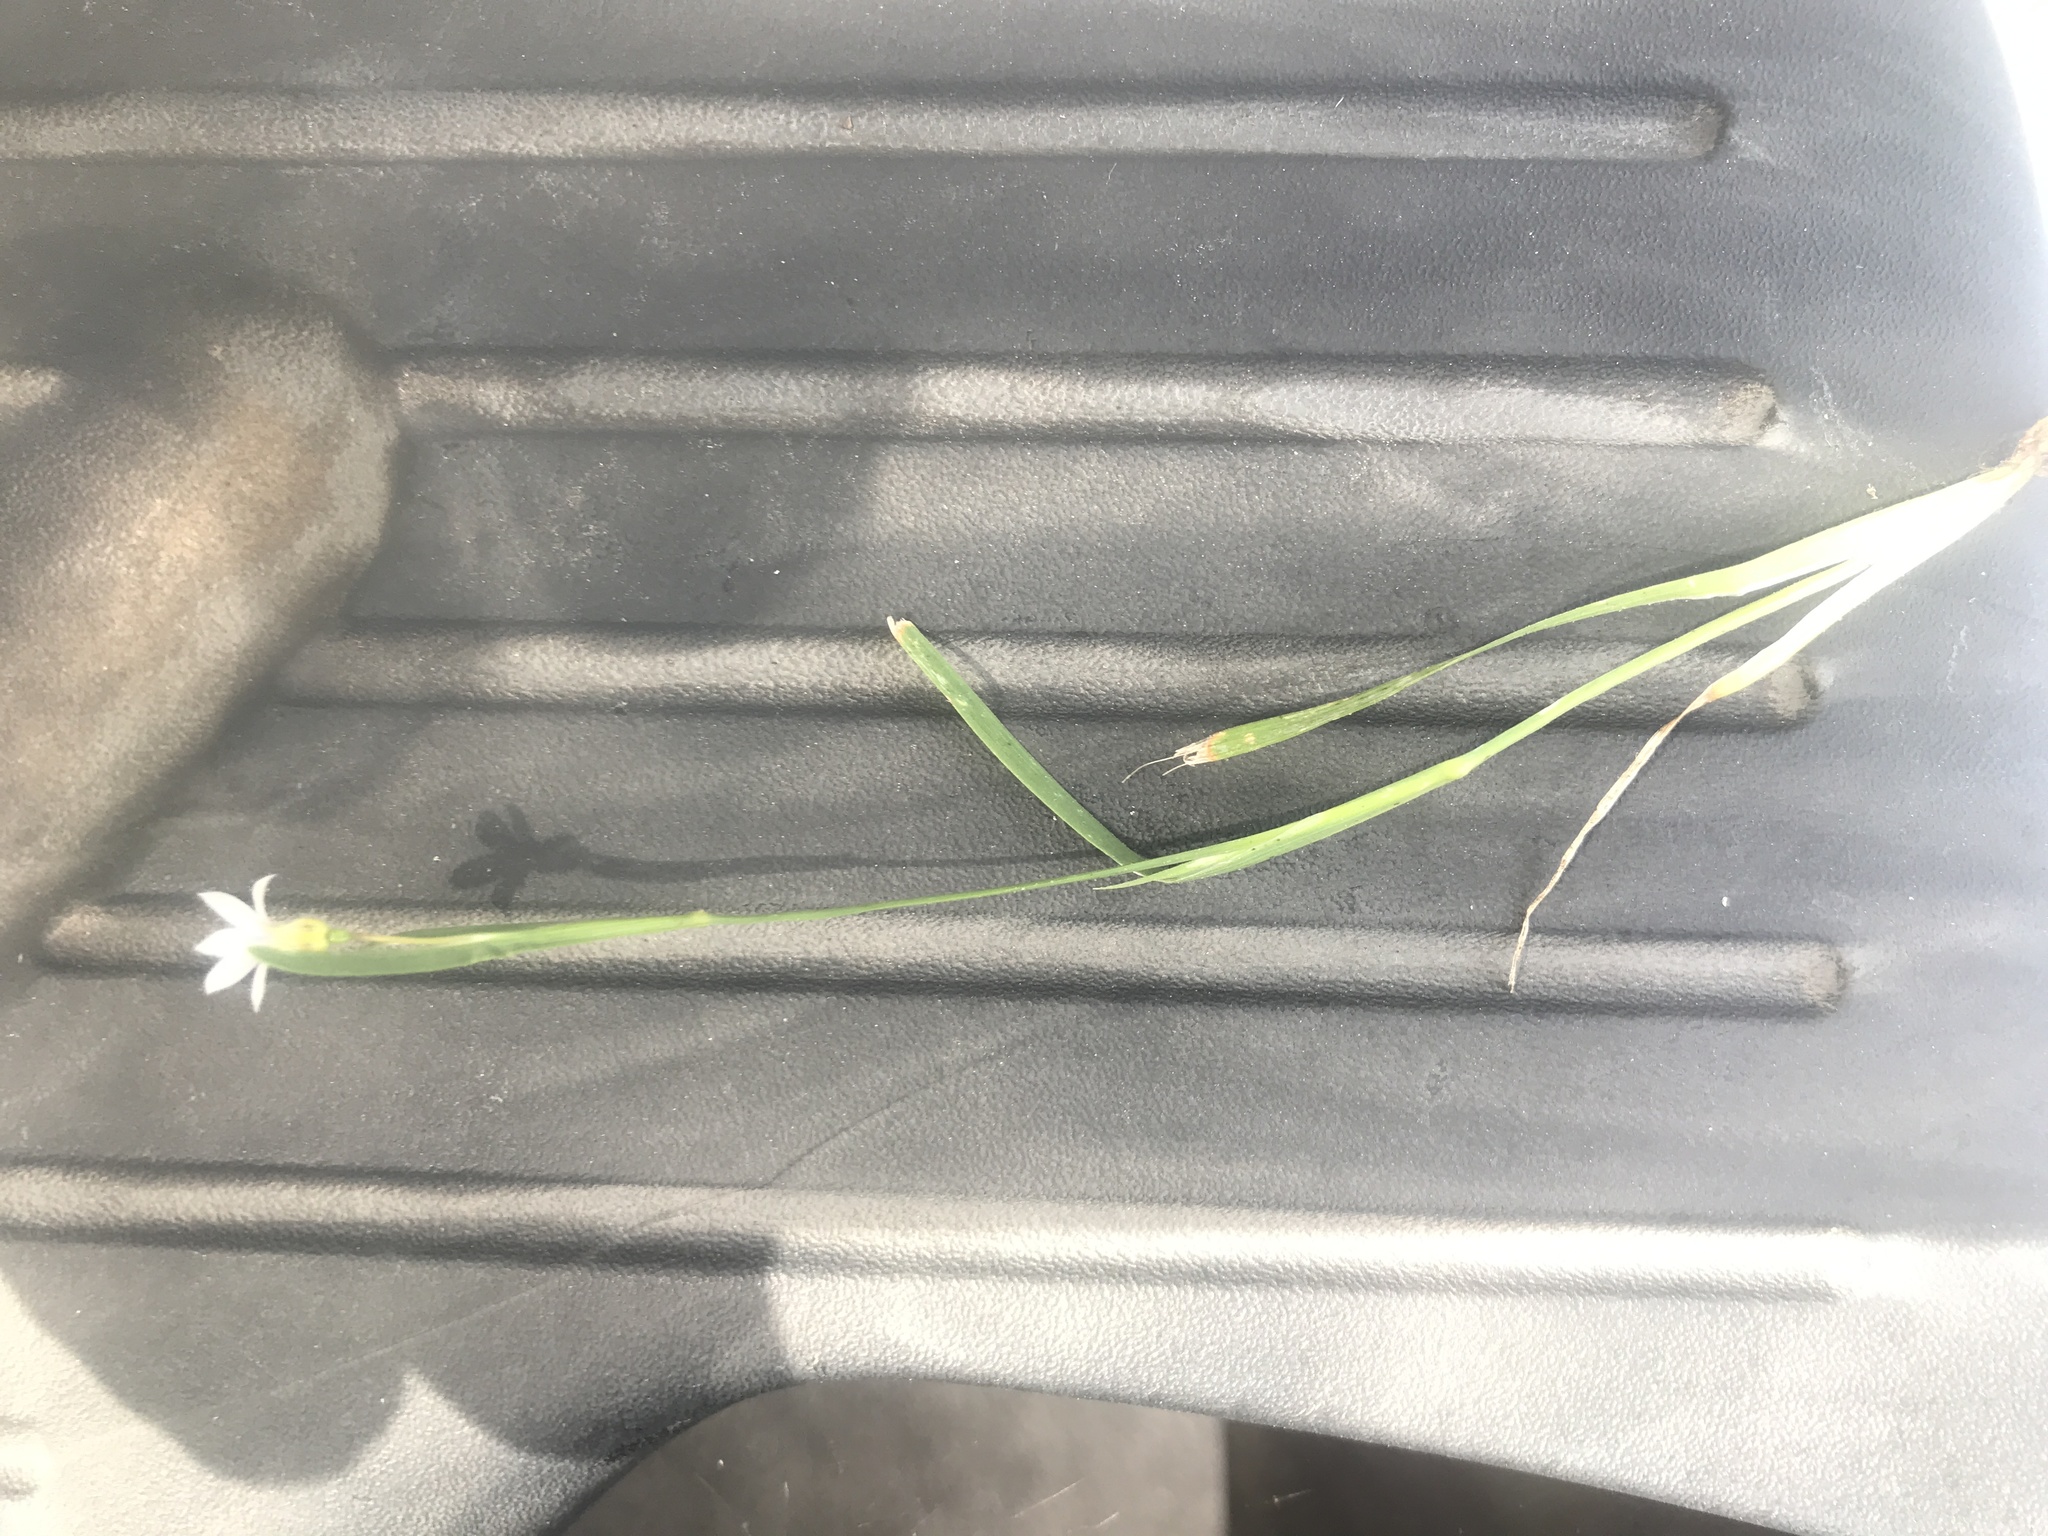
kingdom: Plantae
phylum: Tracheophyta
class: Liliopsida
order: Asparagales
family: Iridaceae
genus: Sisyrinchium
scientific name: Sisyrinchium micranthum
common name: Bermuda pigroot
